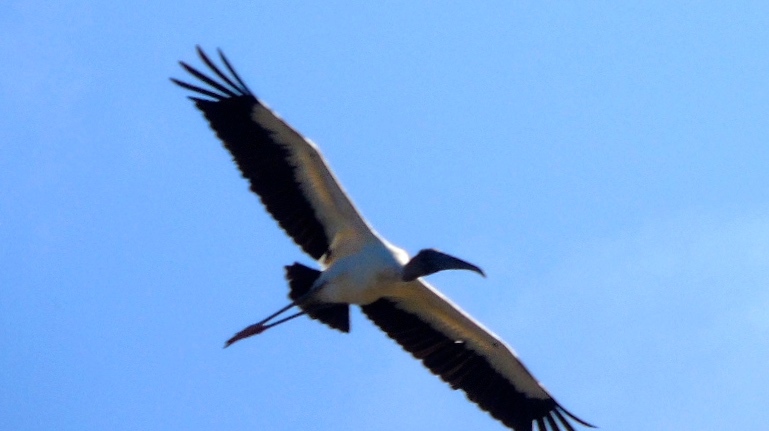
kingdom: Animalia
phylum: Chordata
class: Aves
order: Ciconiiformes
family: Ciconiidae
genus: Mycteria
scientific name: Mycteria americana
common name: Wood stork
